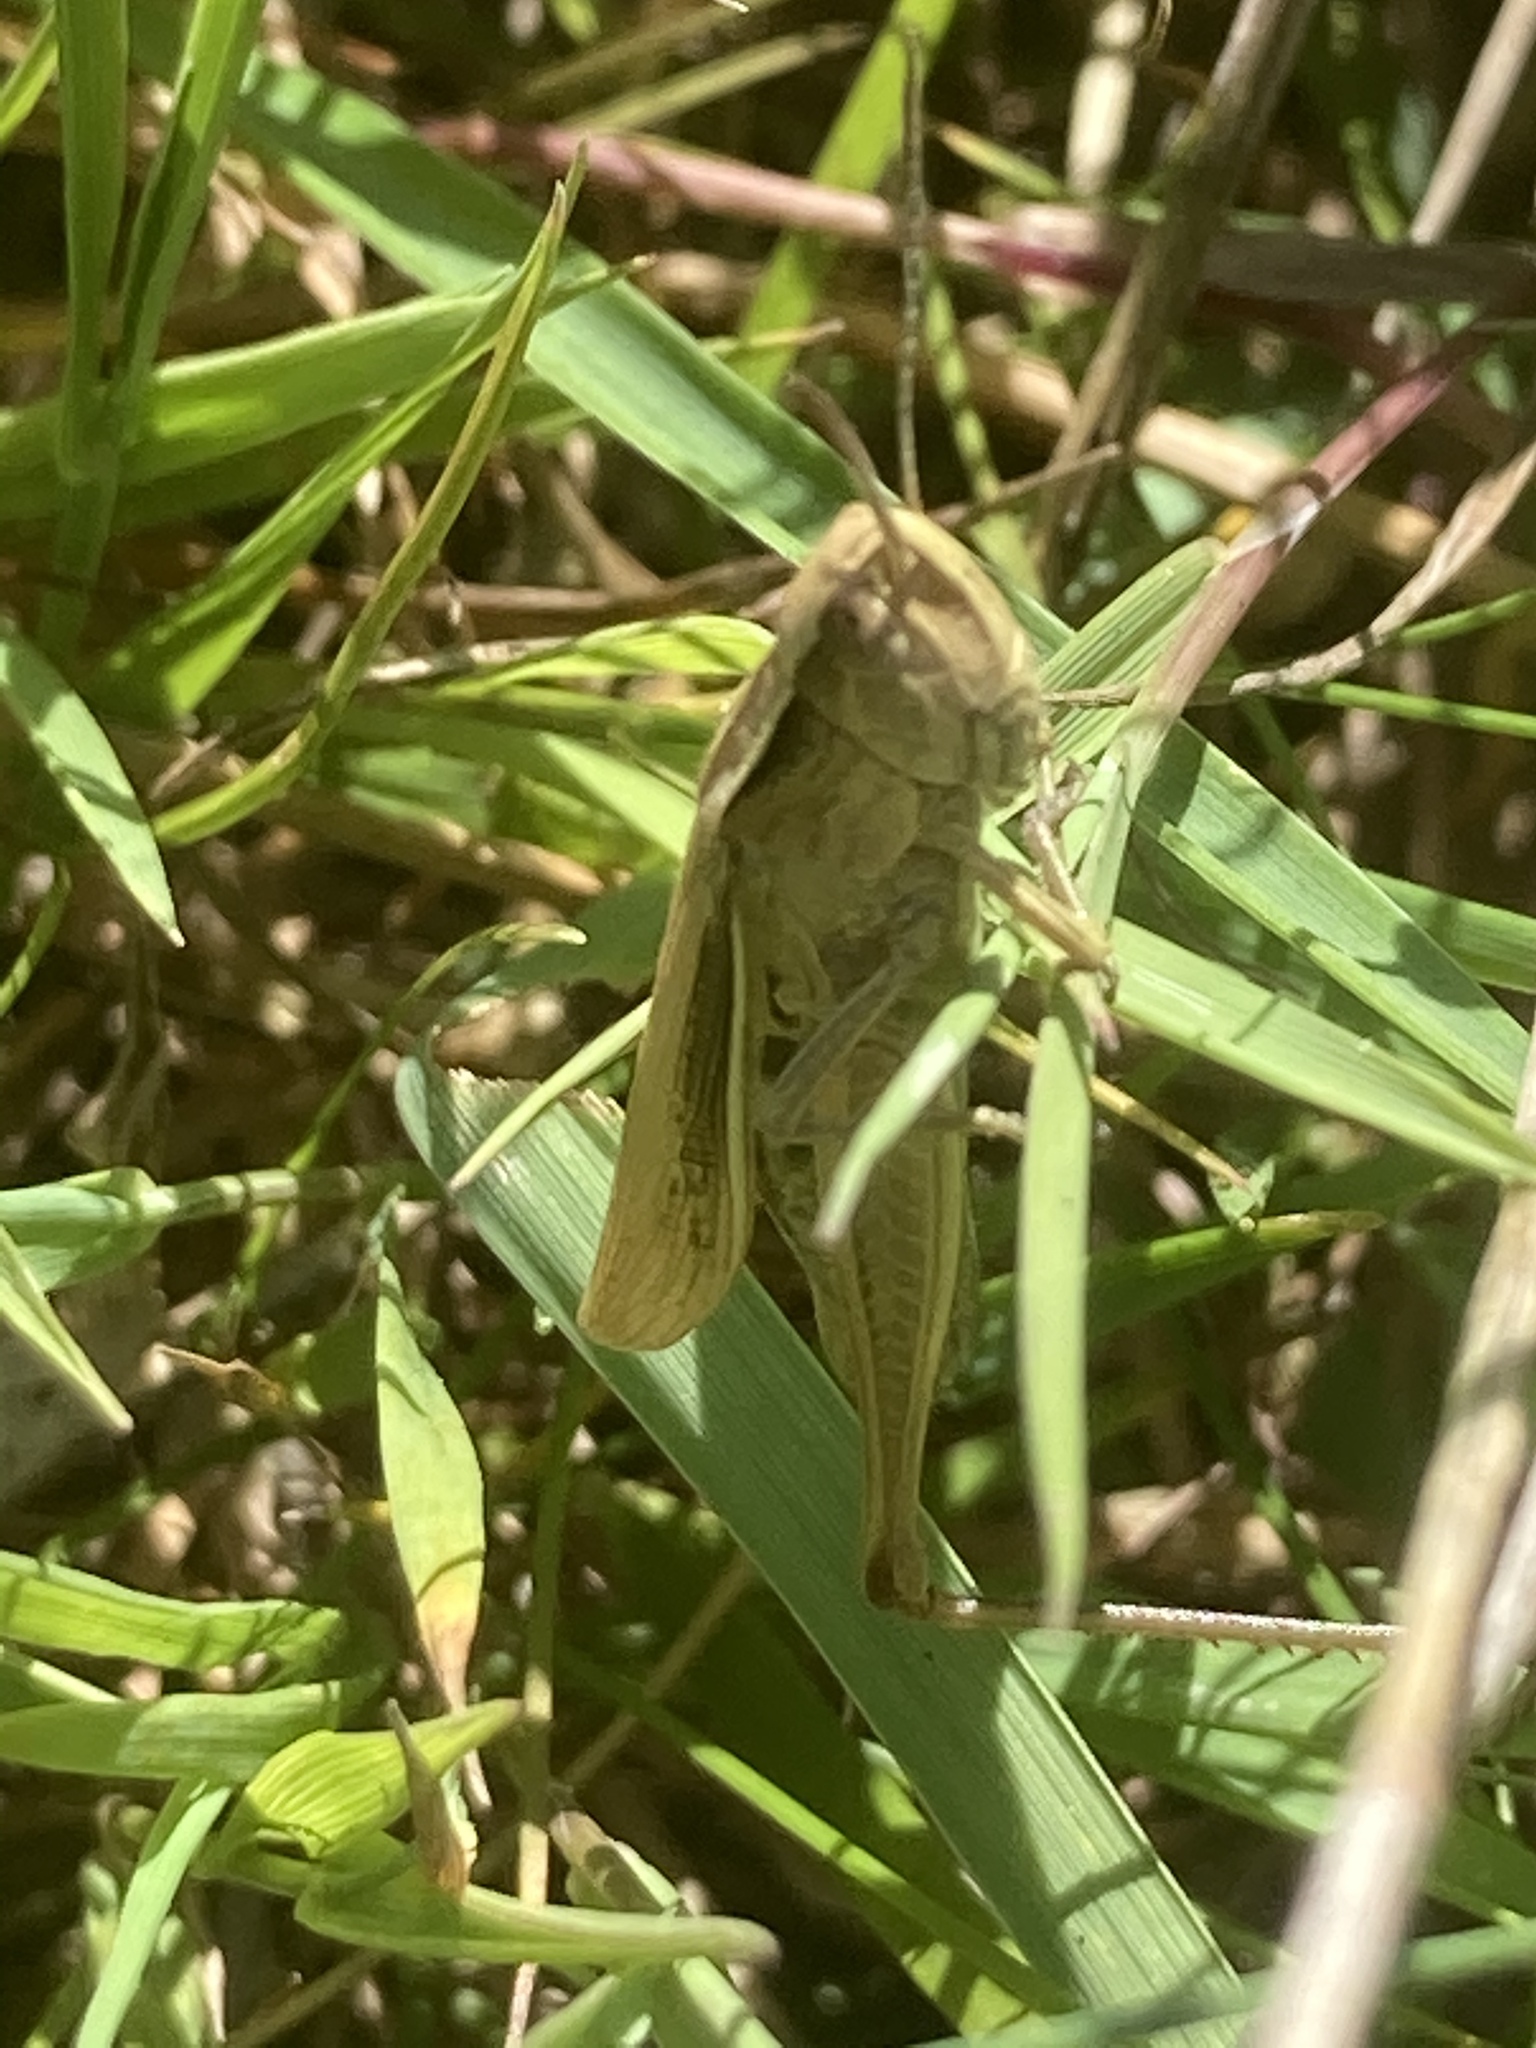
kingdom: Animalia
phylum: Arthropoda
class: Insecta
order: Orthoptera
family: Acrididae
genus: Chorthippus
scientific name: Chorthippus albomarginatus
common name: Lesser marsh grasshopper
